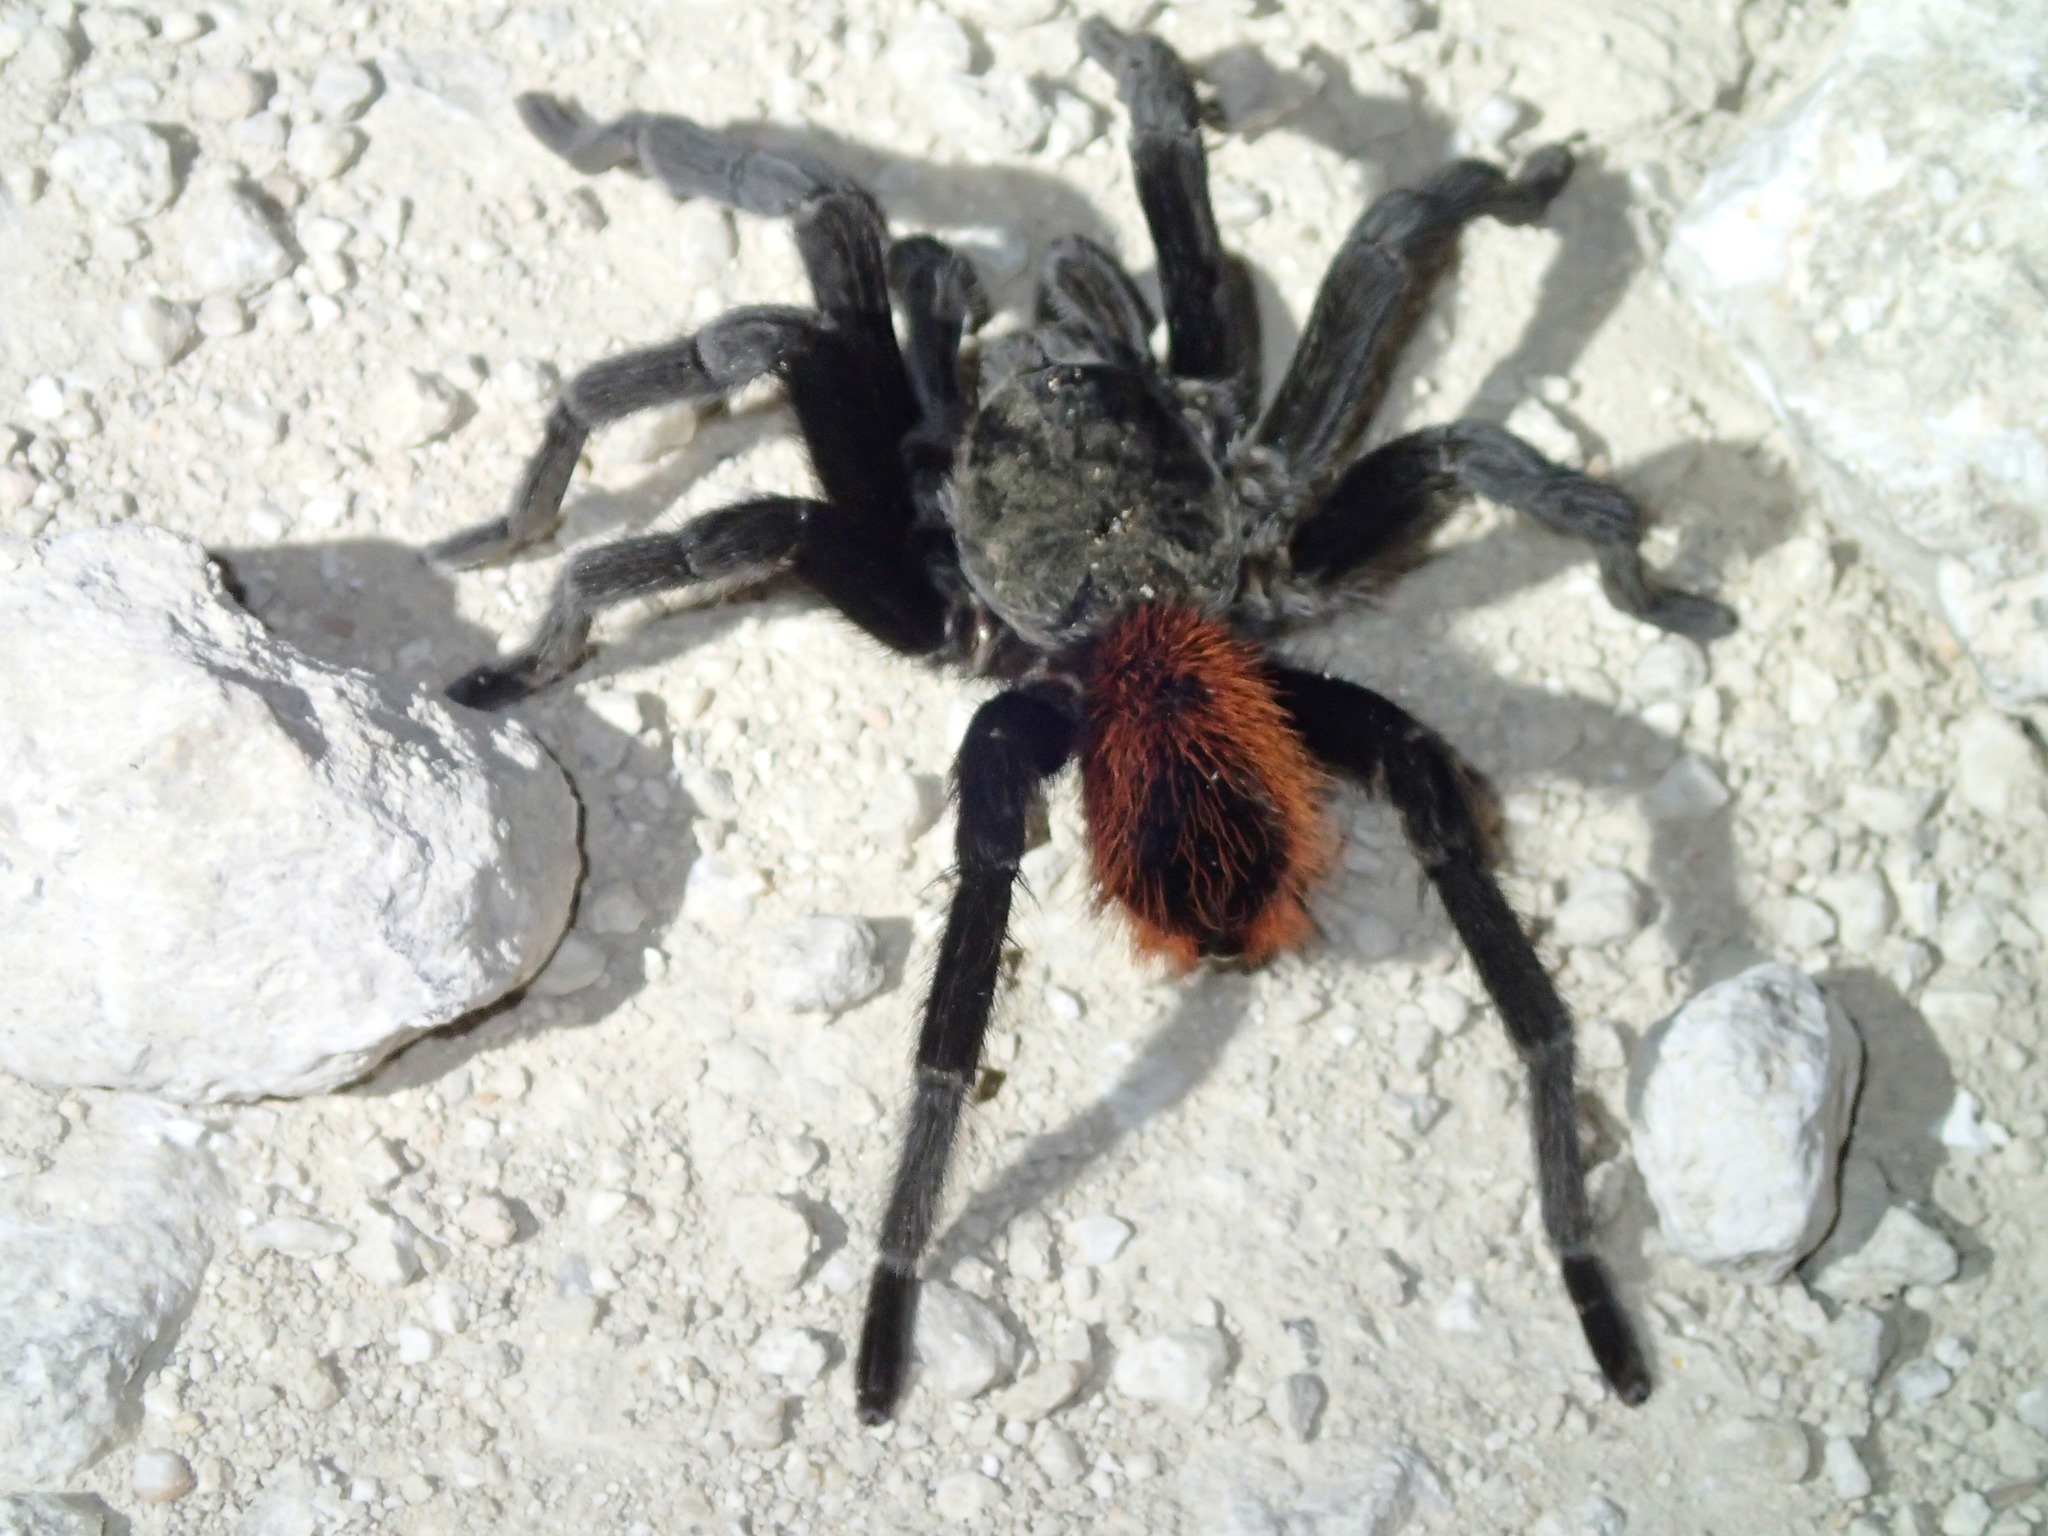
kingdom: Animalia
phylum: Arthropoda
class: Arachnida
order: Araneae
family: Theraphosidae
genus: Tliltocatl
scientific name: Tliltocatl vagans
